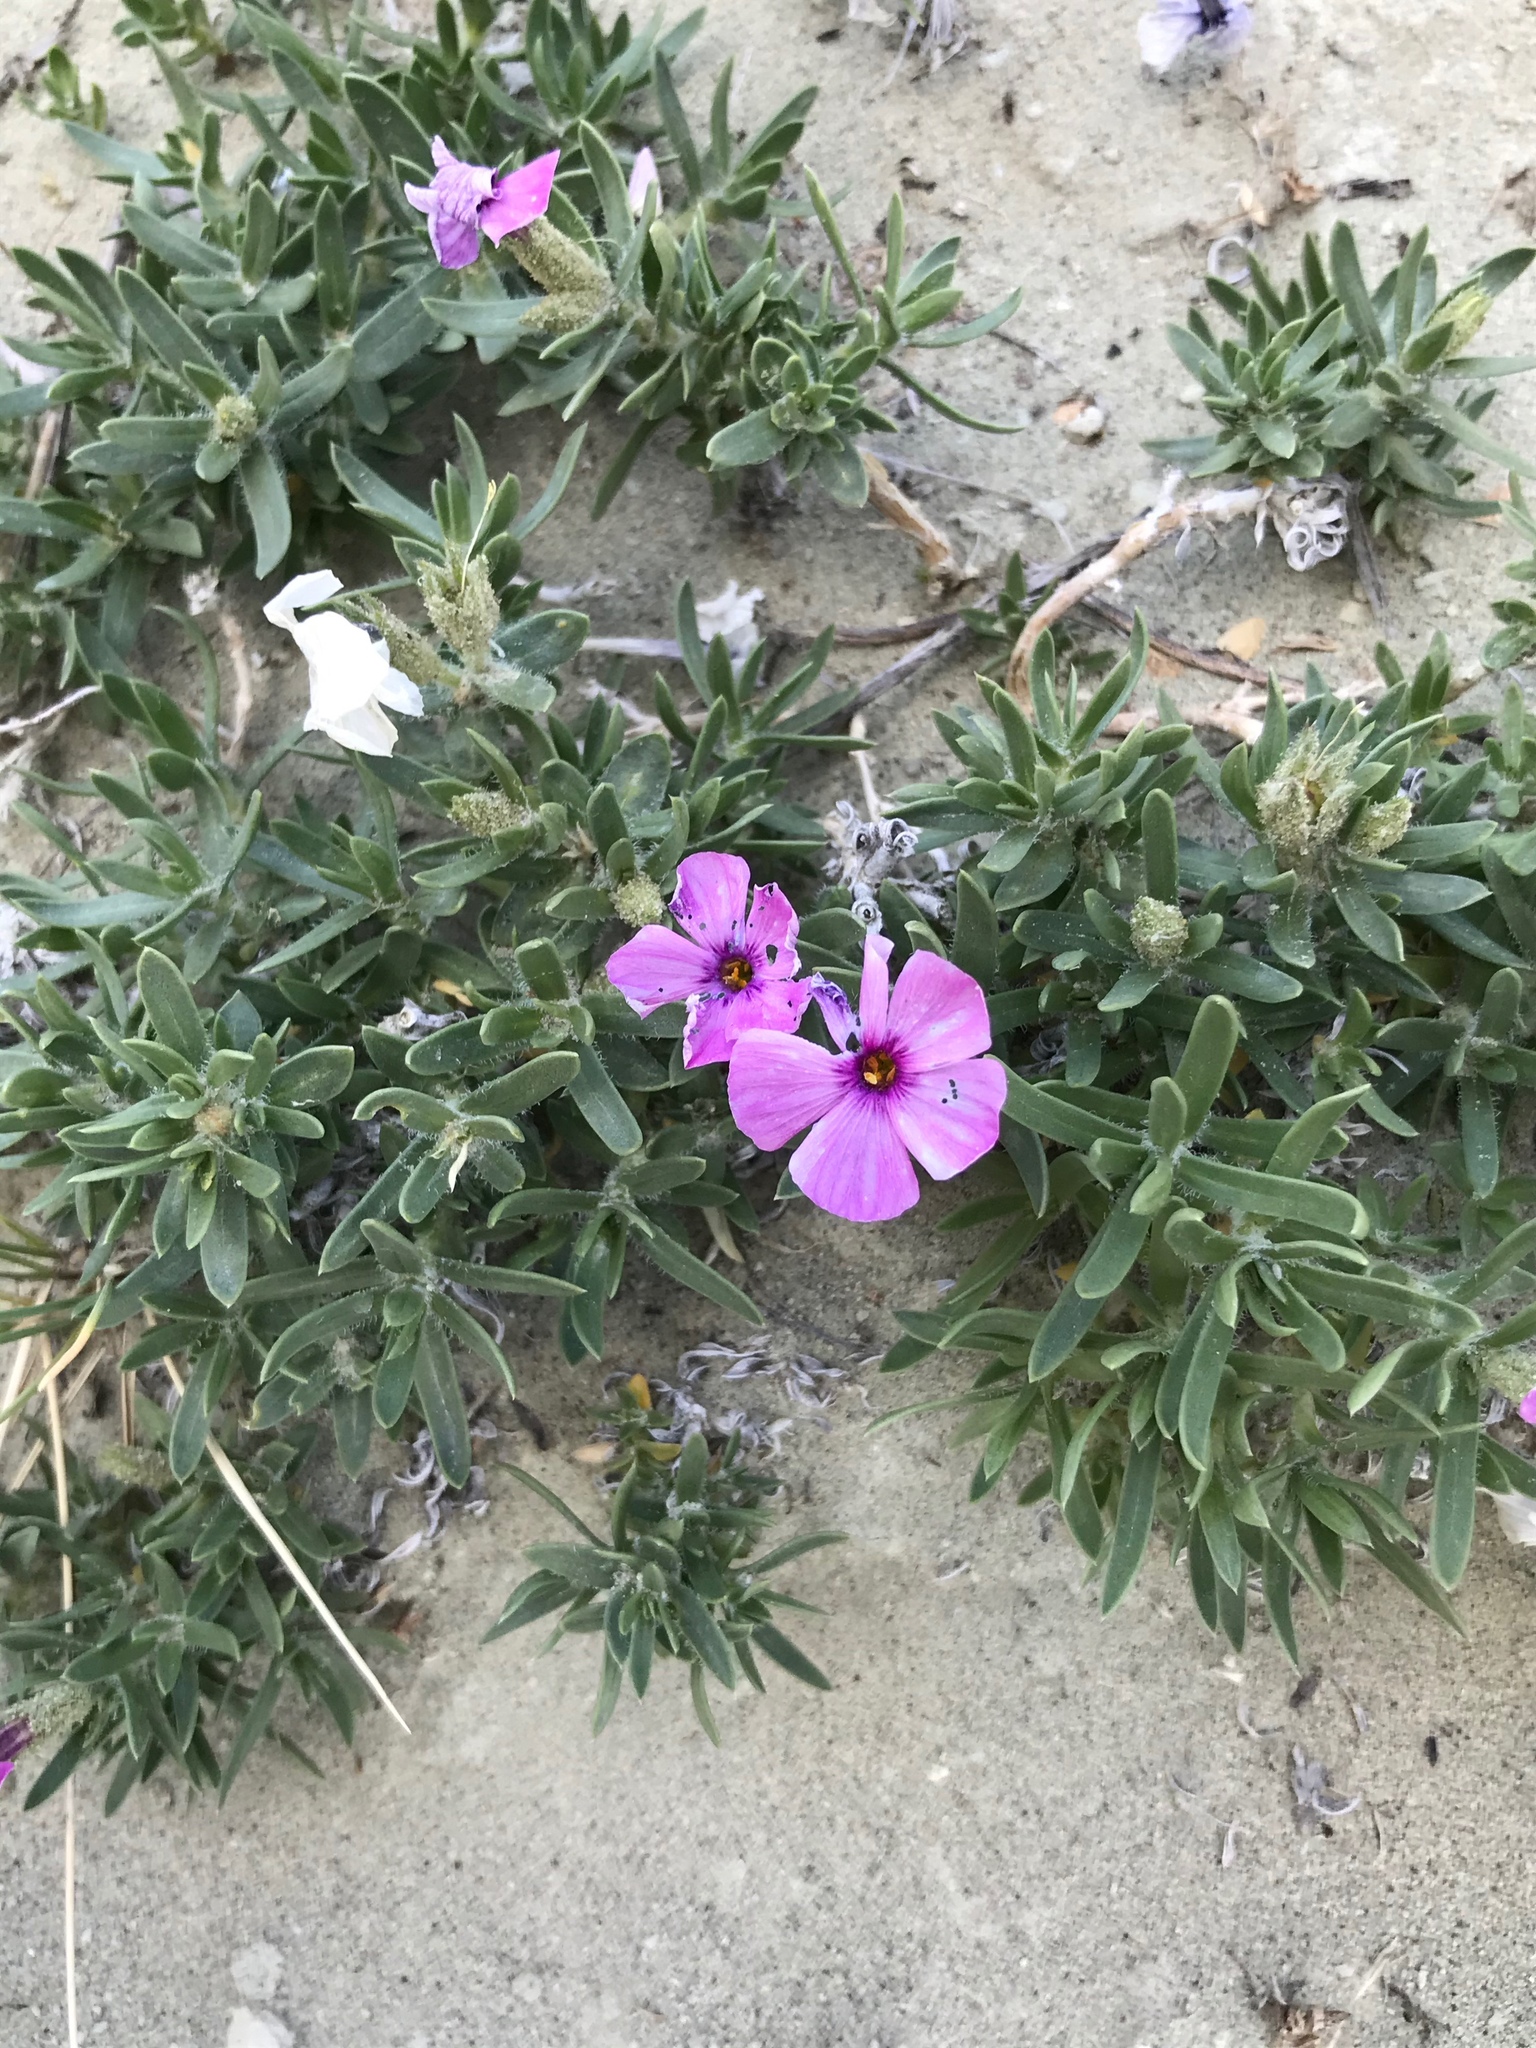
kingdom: Plantae
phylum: Tracheophyta
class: Magnoliopsida
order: Ericales
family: Polemoniaceae
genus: Phlox
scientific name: Phlox alyssifolia
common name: Blue phlox
